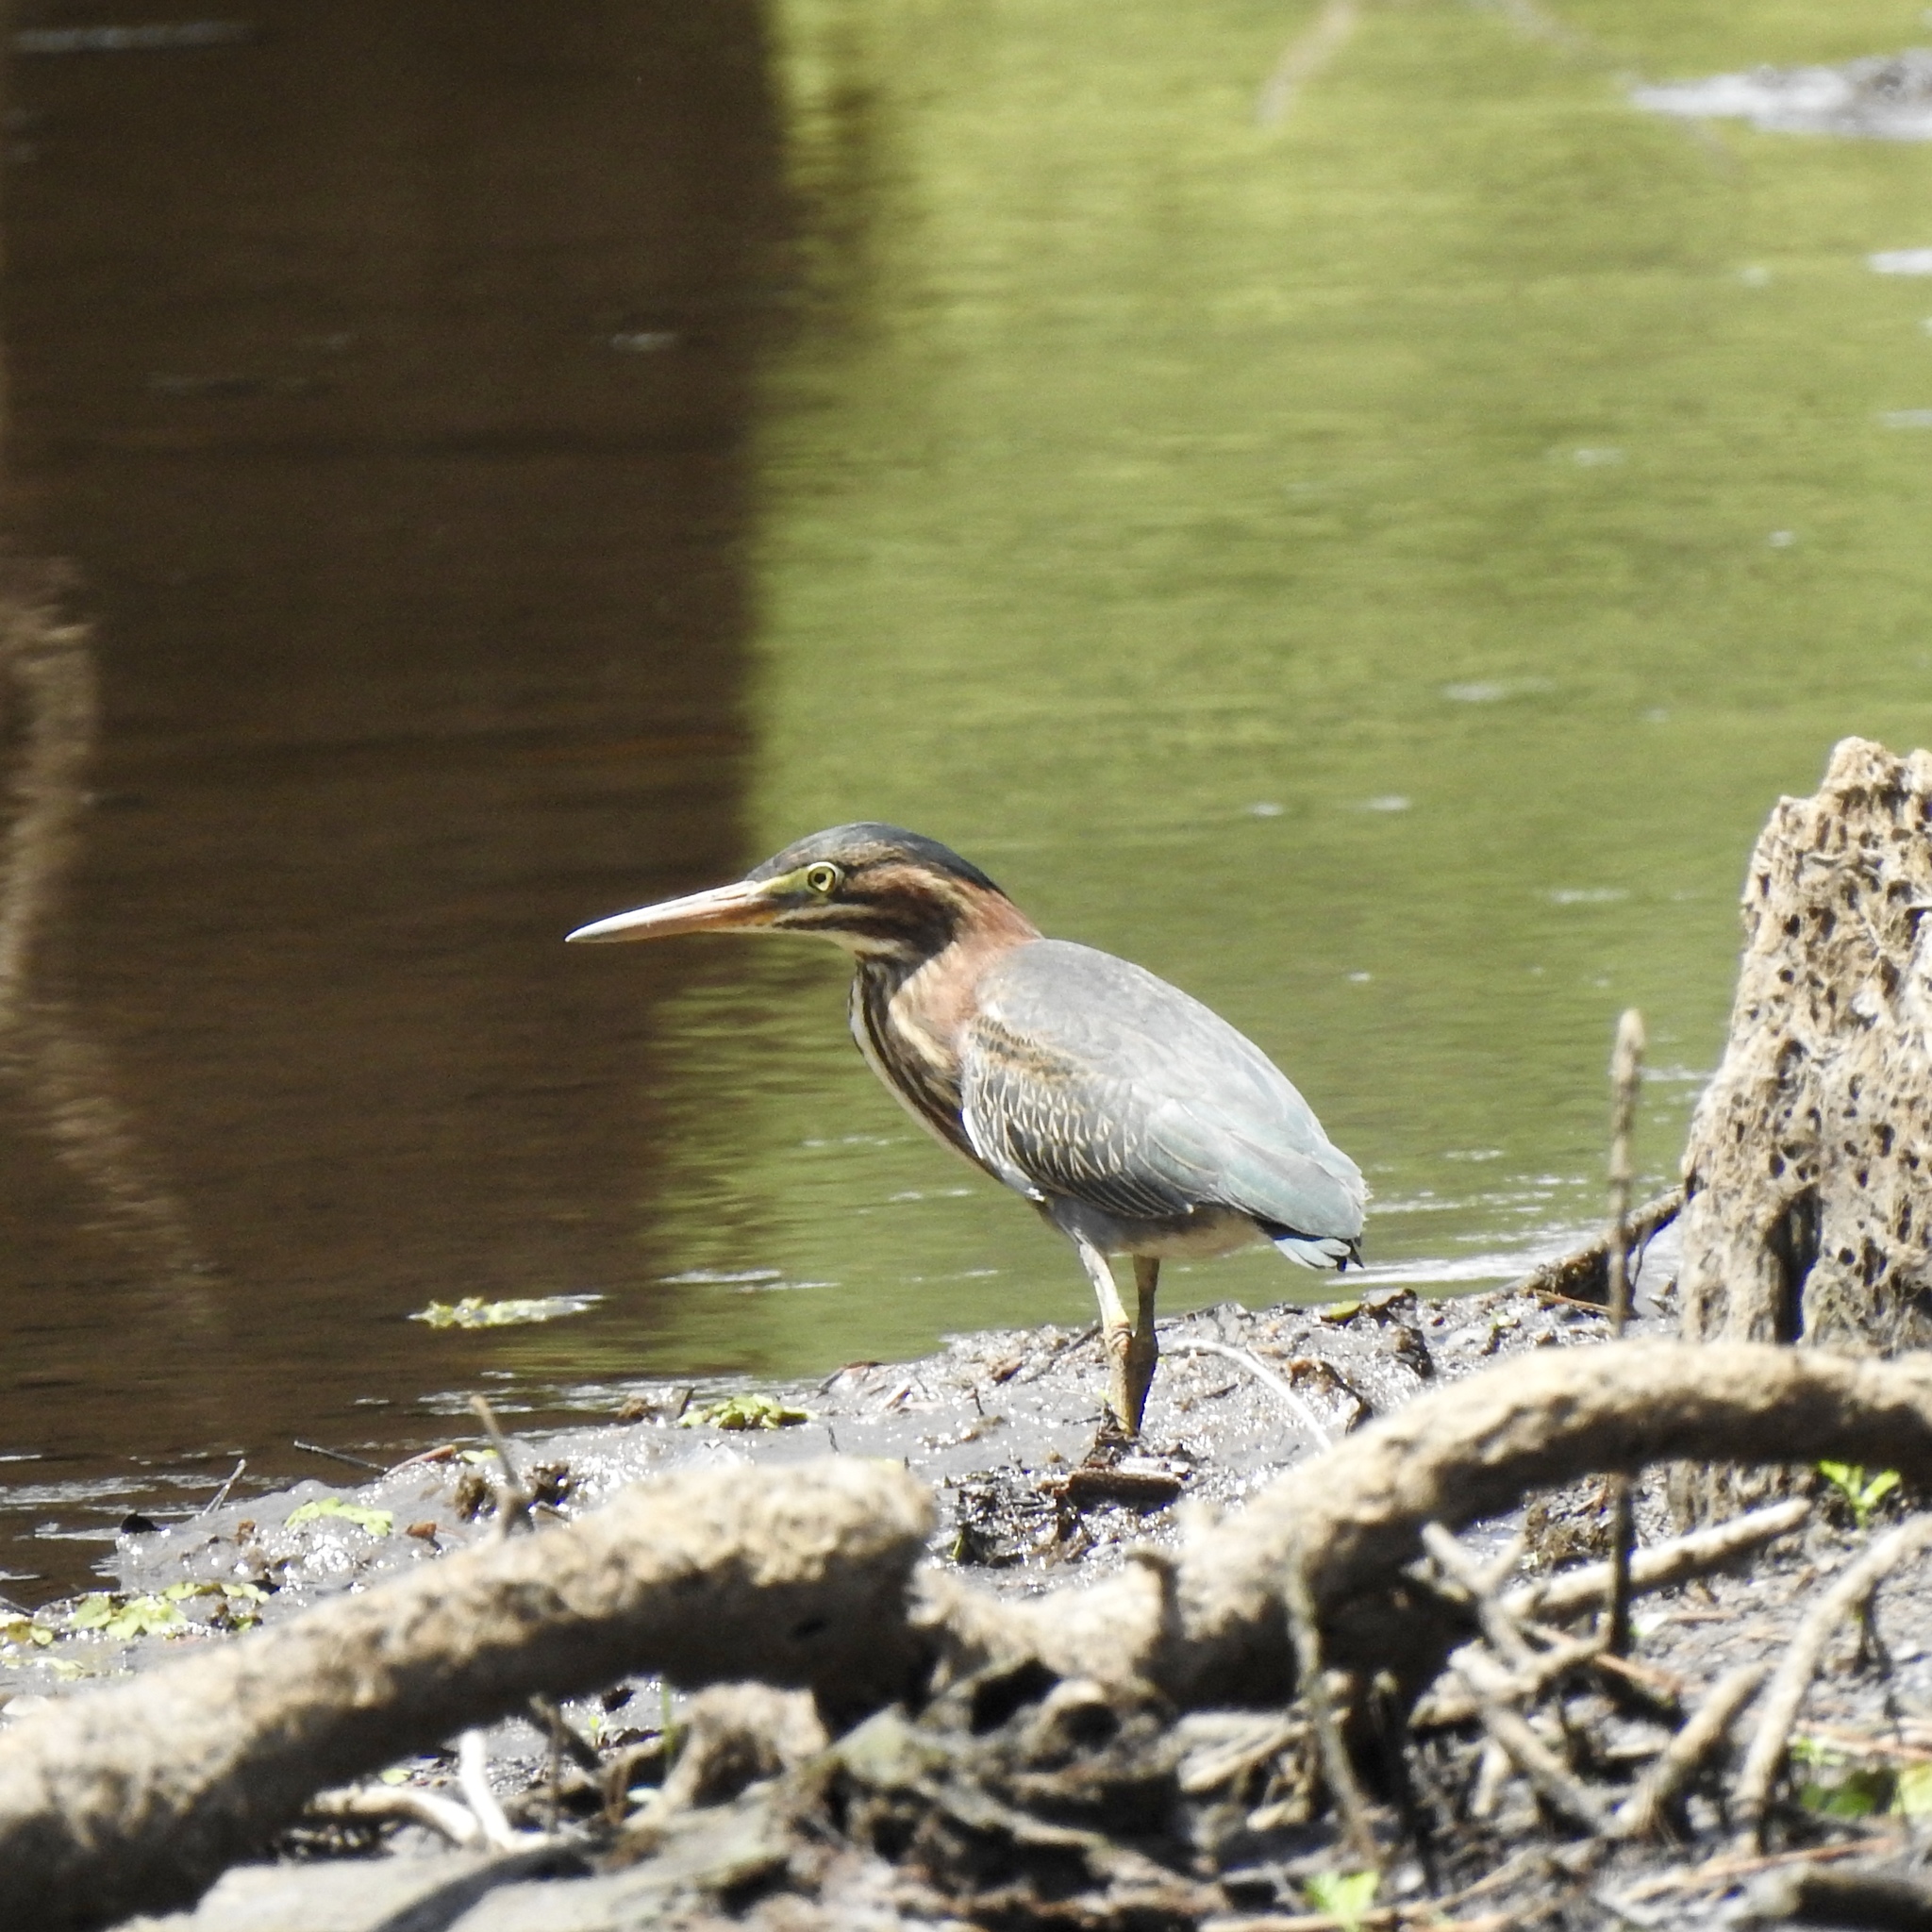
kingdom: Animalia
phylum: Chordata
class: Aves
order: Pelecaniformes
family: Ardeidae
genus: Butorides
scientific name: Butorides virescens
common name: Green heron
